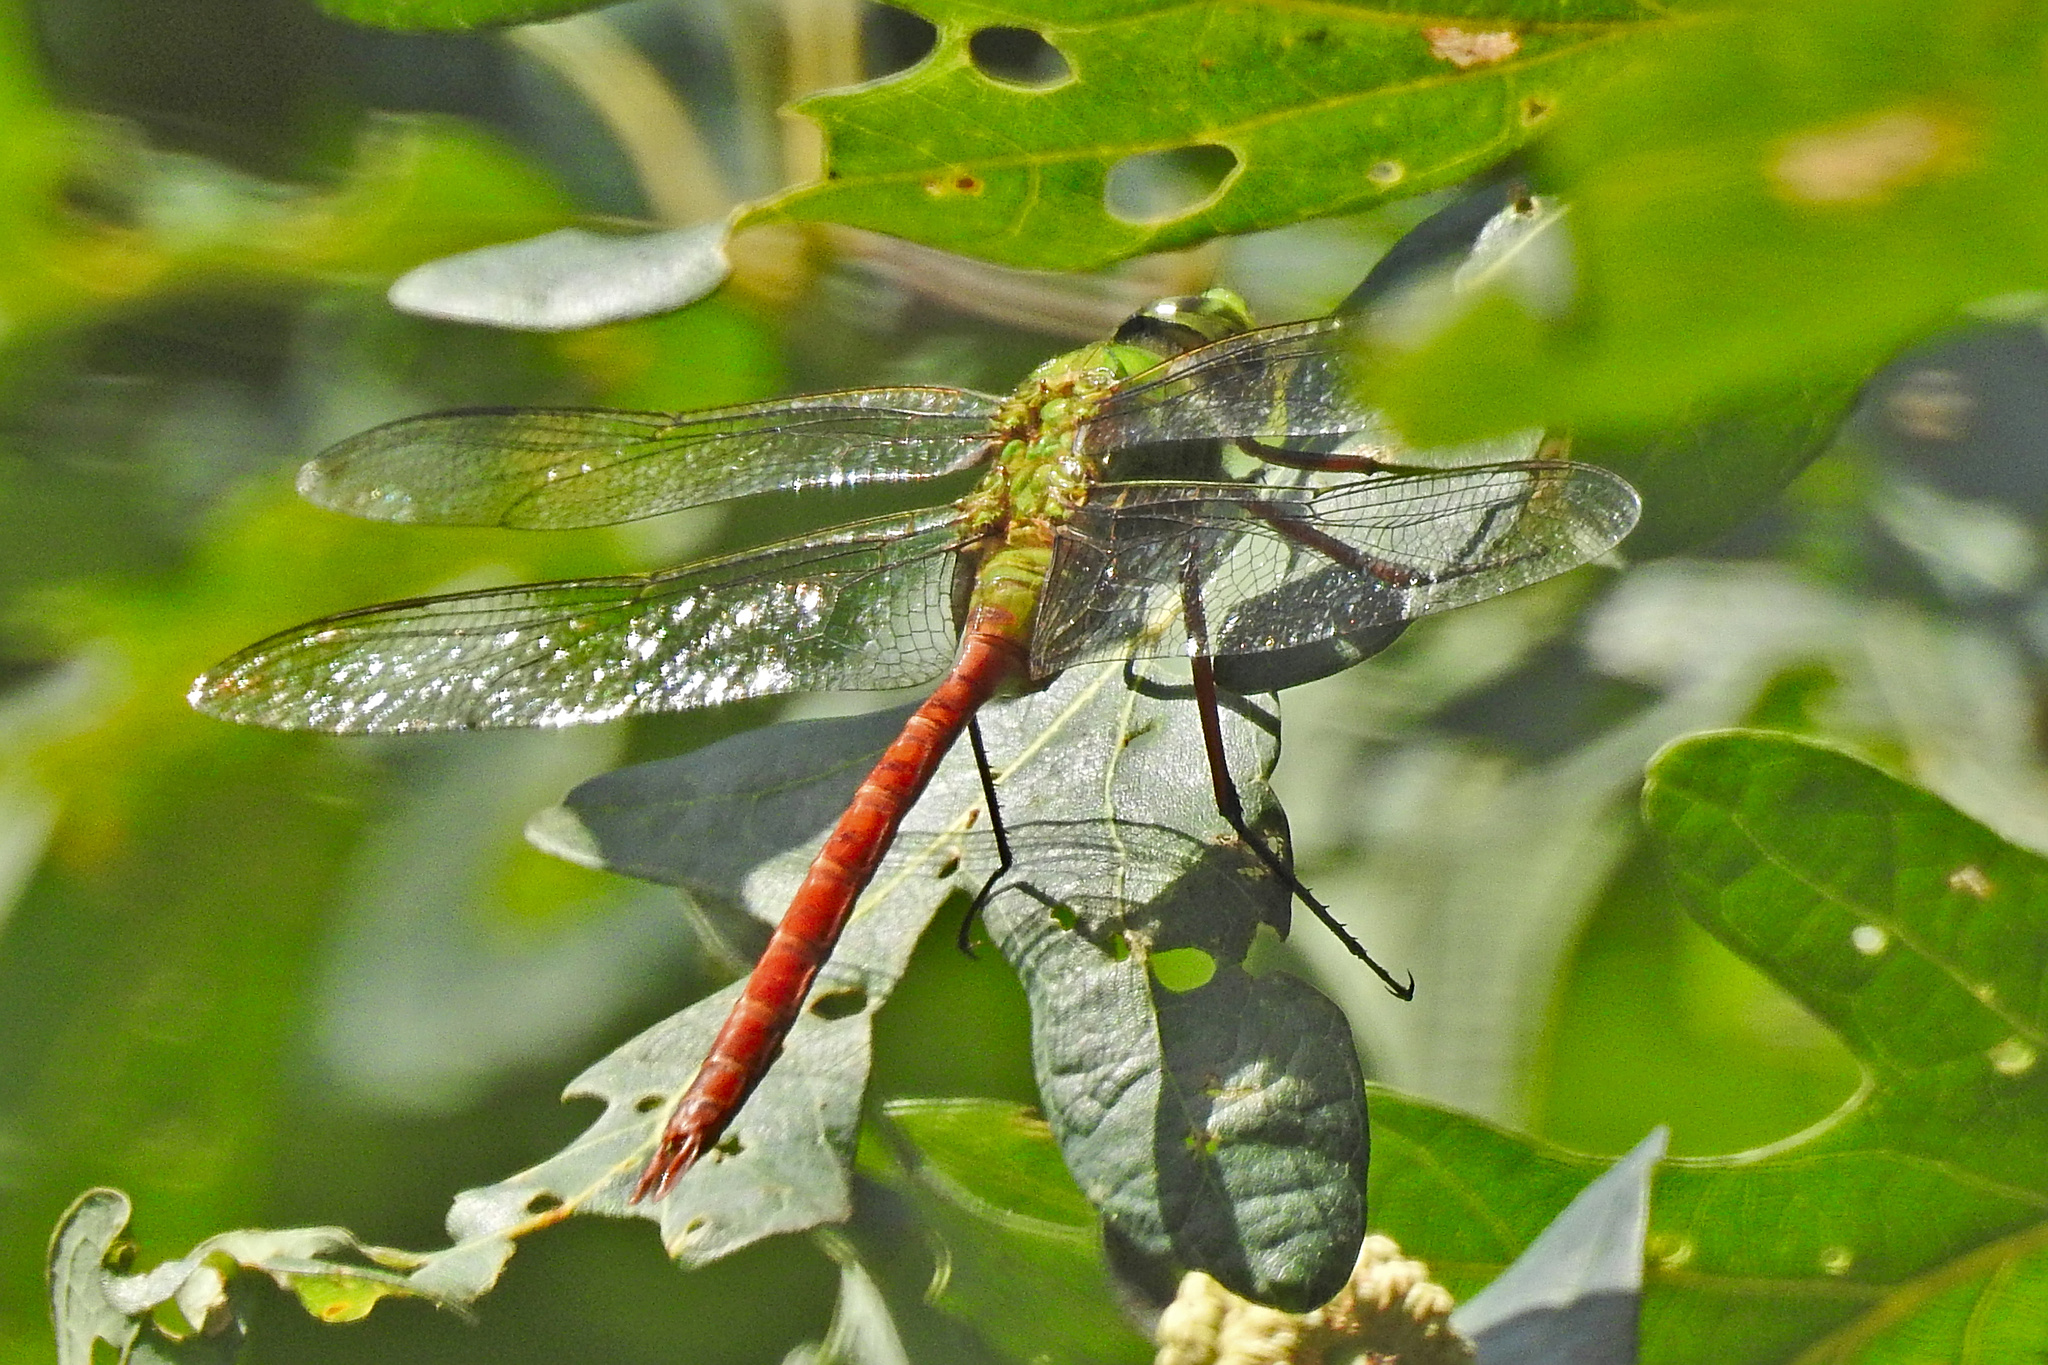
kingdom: Animalia
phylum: Arthropoda
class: Insecta
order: Odonata
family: Aeshnidae
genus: Anax
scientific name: Anax longipes
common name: Comet darner
